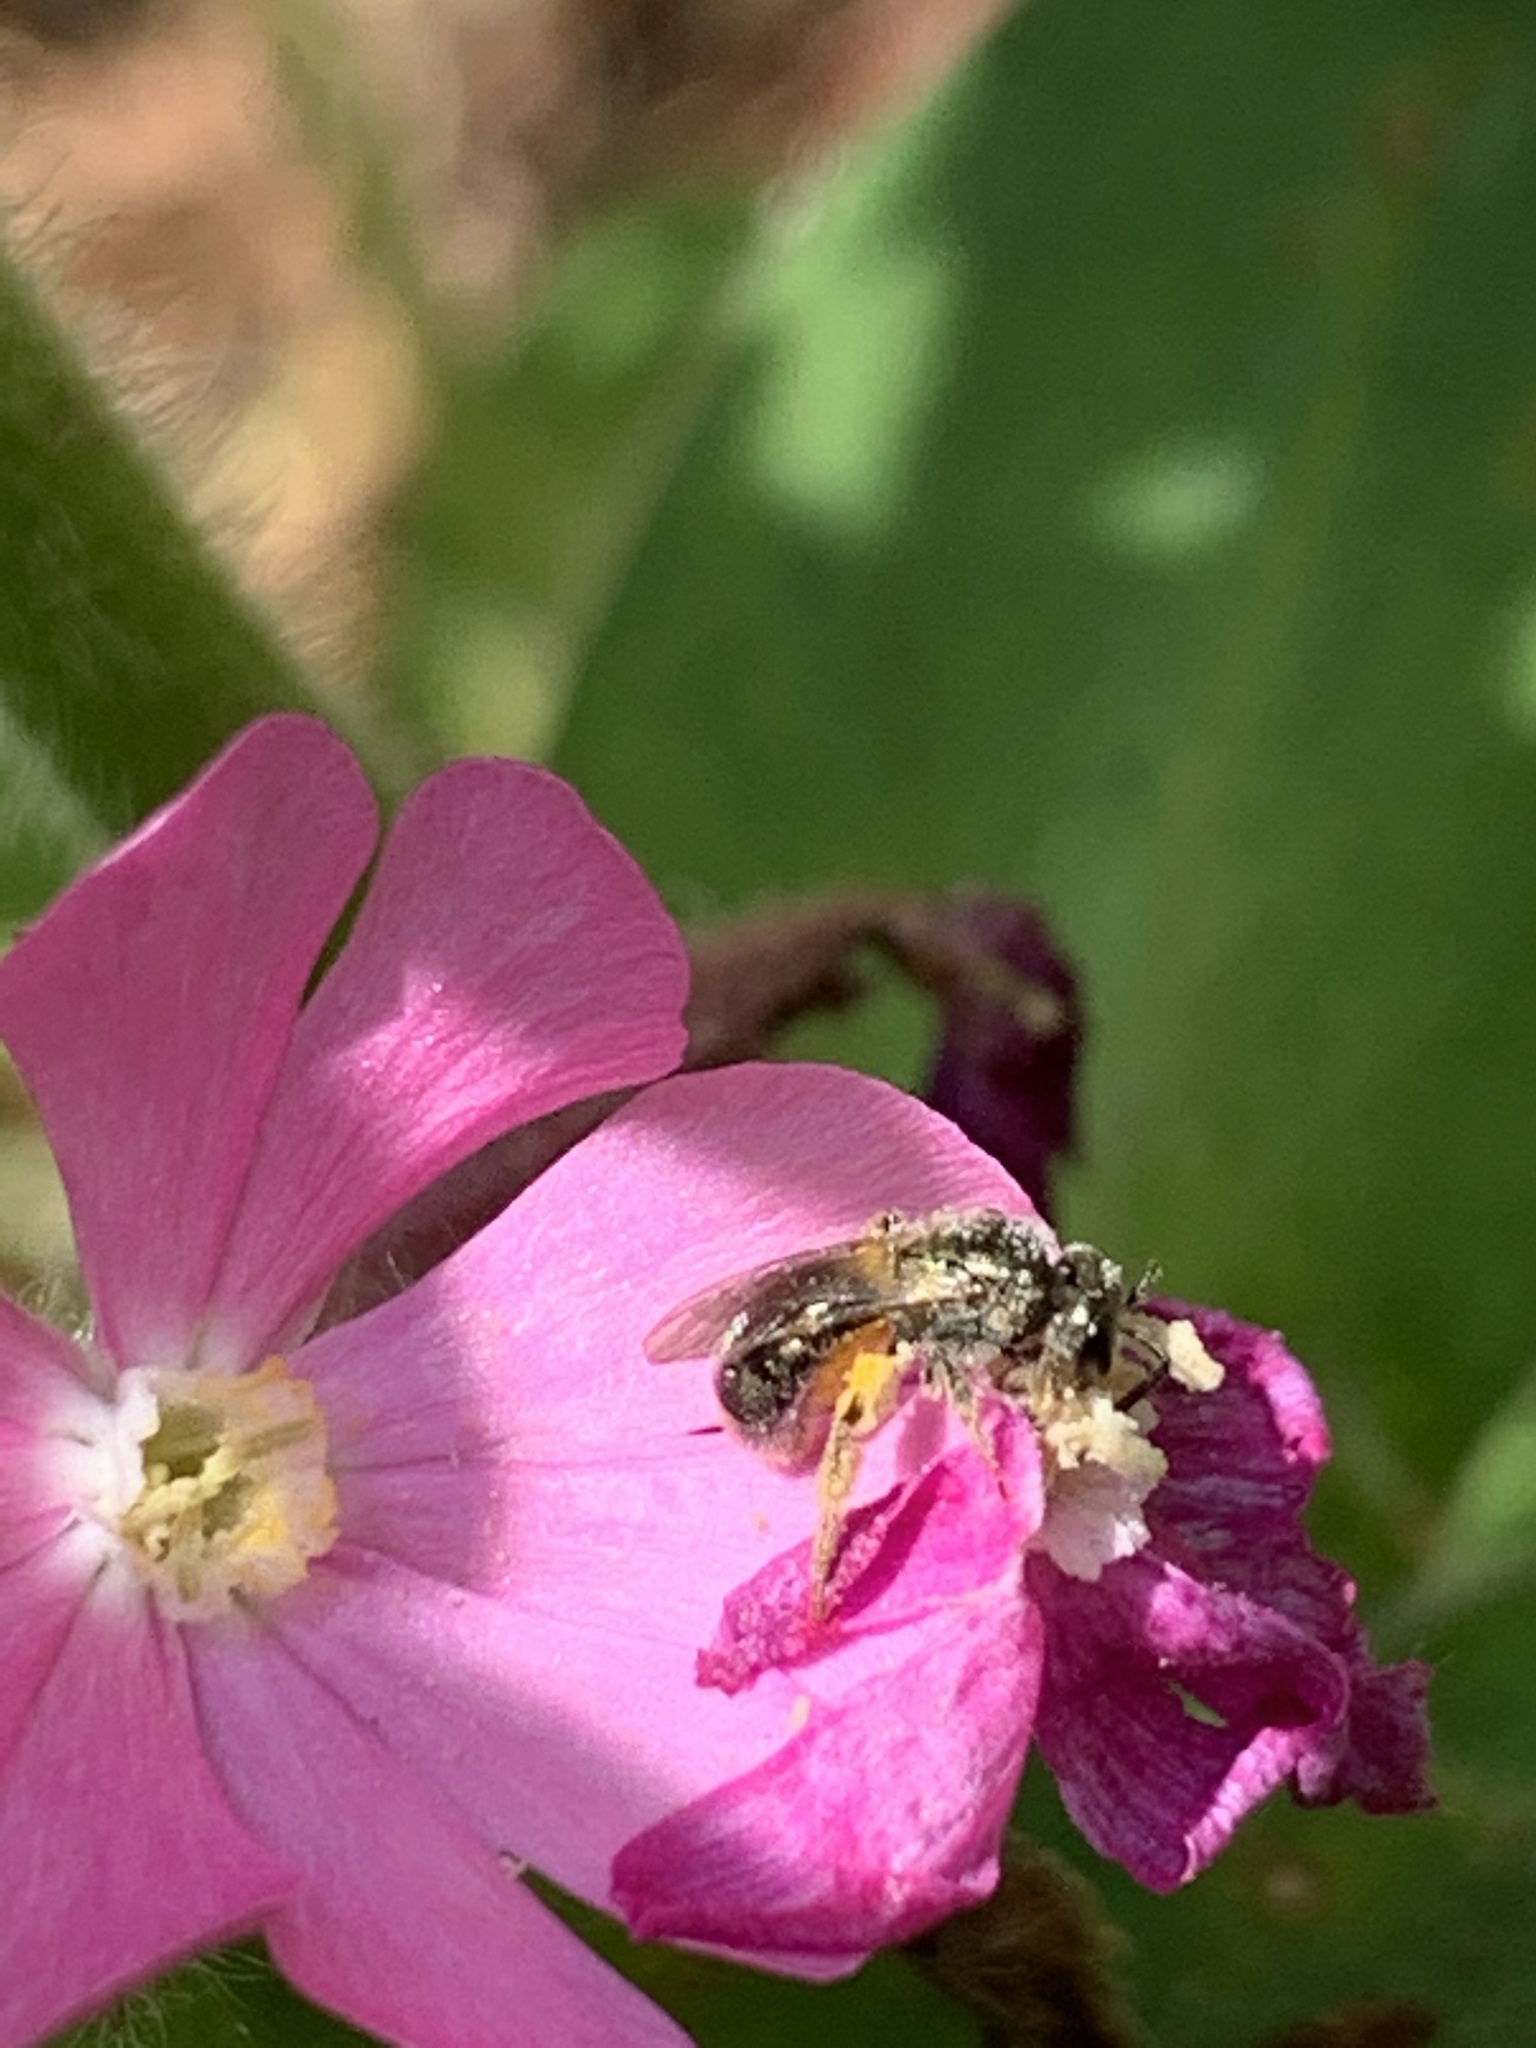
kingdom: Animalia
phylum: Arthropoda
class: Insecta
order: Hymenoptera
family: Halictidae
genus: Dialictus
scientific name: Dialictus
